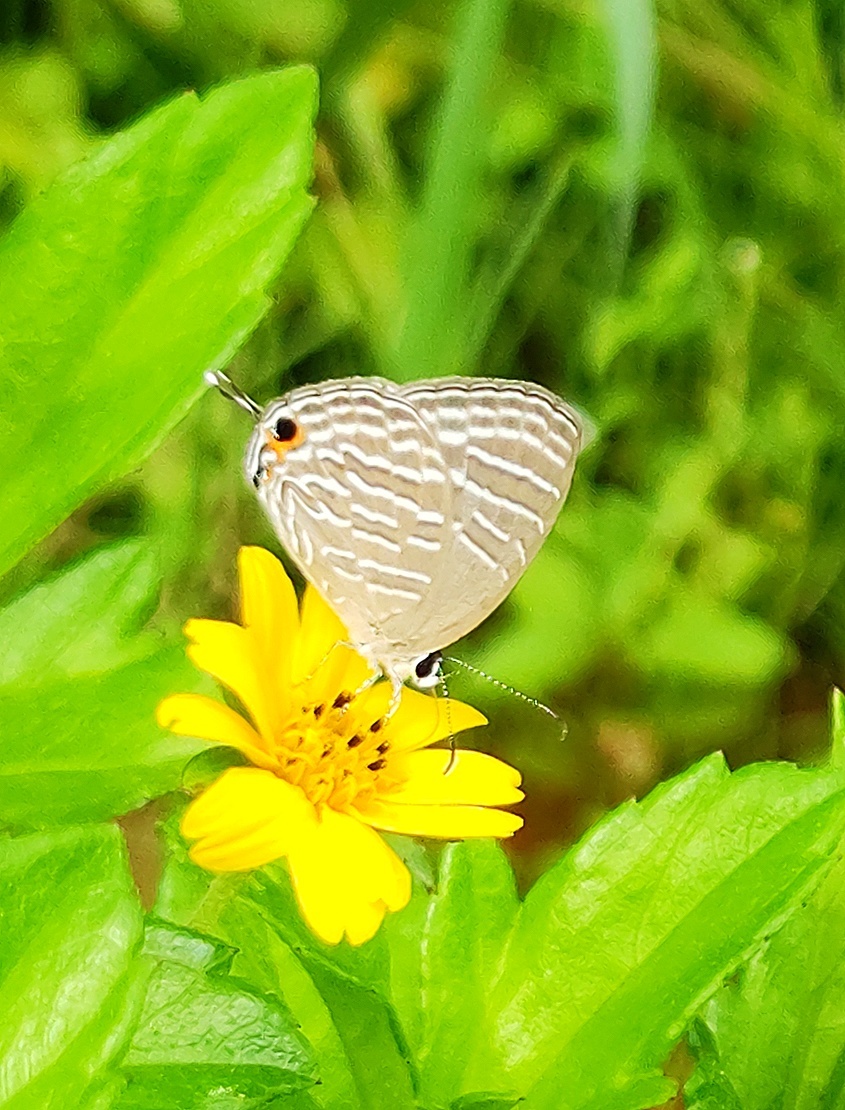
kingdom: Animalia
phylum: Arthropoda
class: Insecta
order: Lepidoptera
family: Lycaenidae
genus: Jamides
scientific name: Jamides celeno
